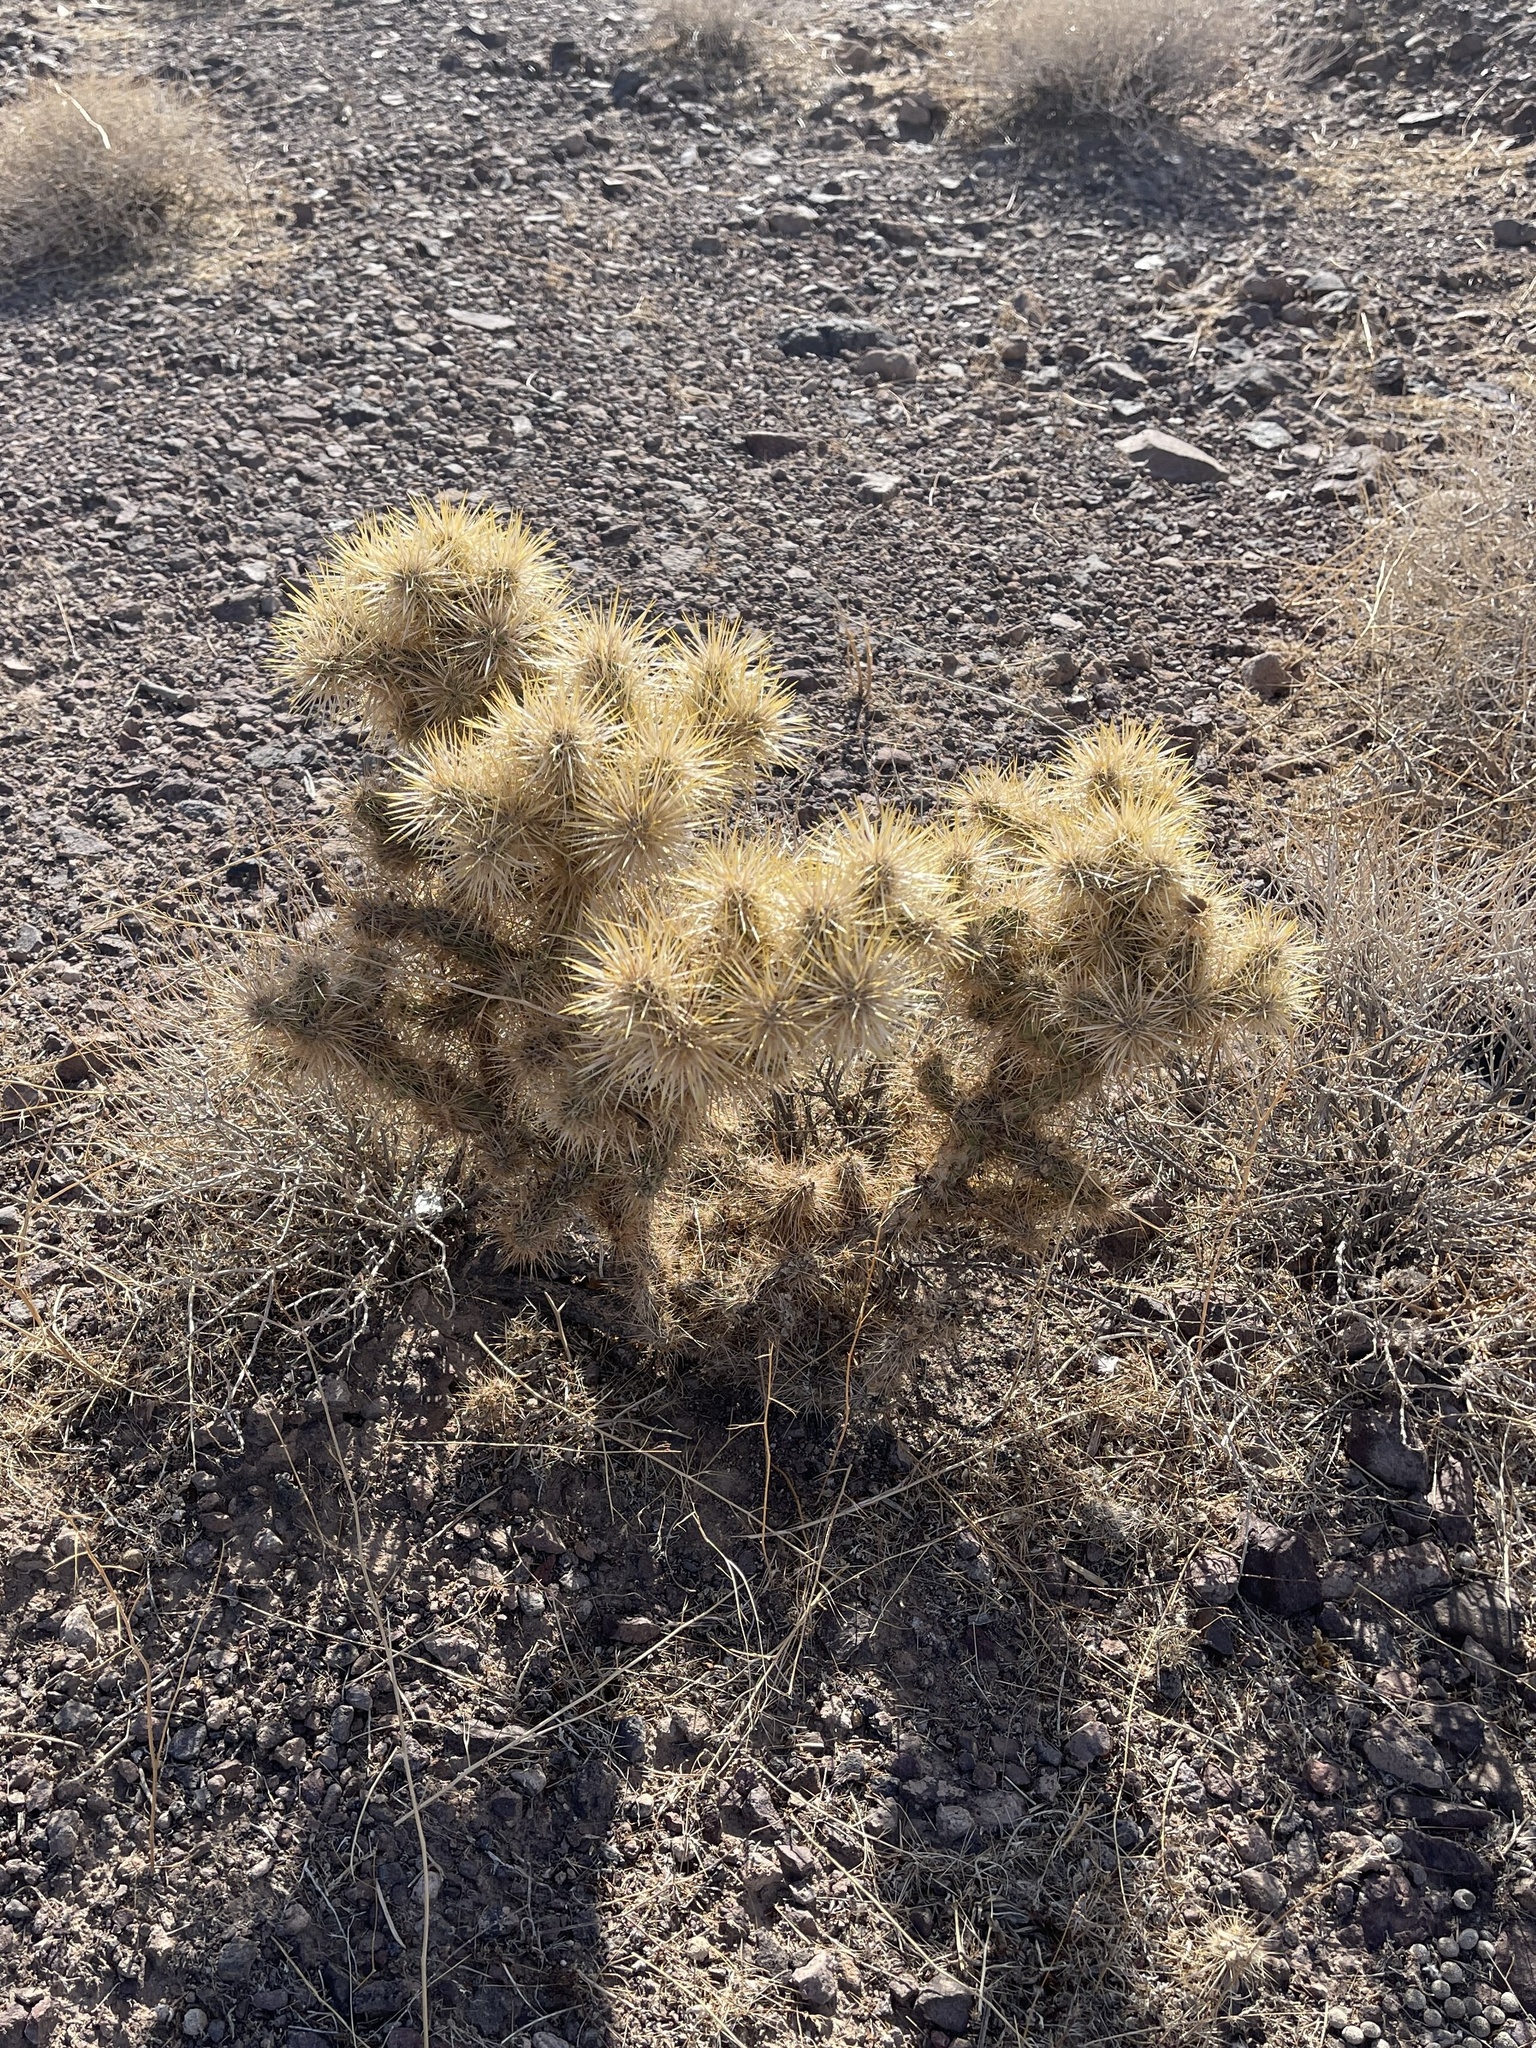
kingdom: Plantae
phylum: Tracheophyta
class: Magnoliopsida
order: Caryophyllales
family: Cactaceae
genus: Cylindropuntia
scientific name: Cylindropuntia echinocarpa
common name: Ground cholla
